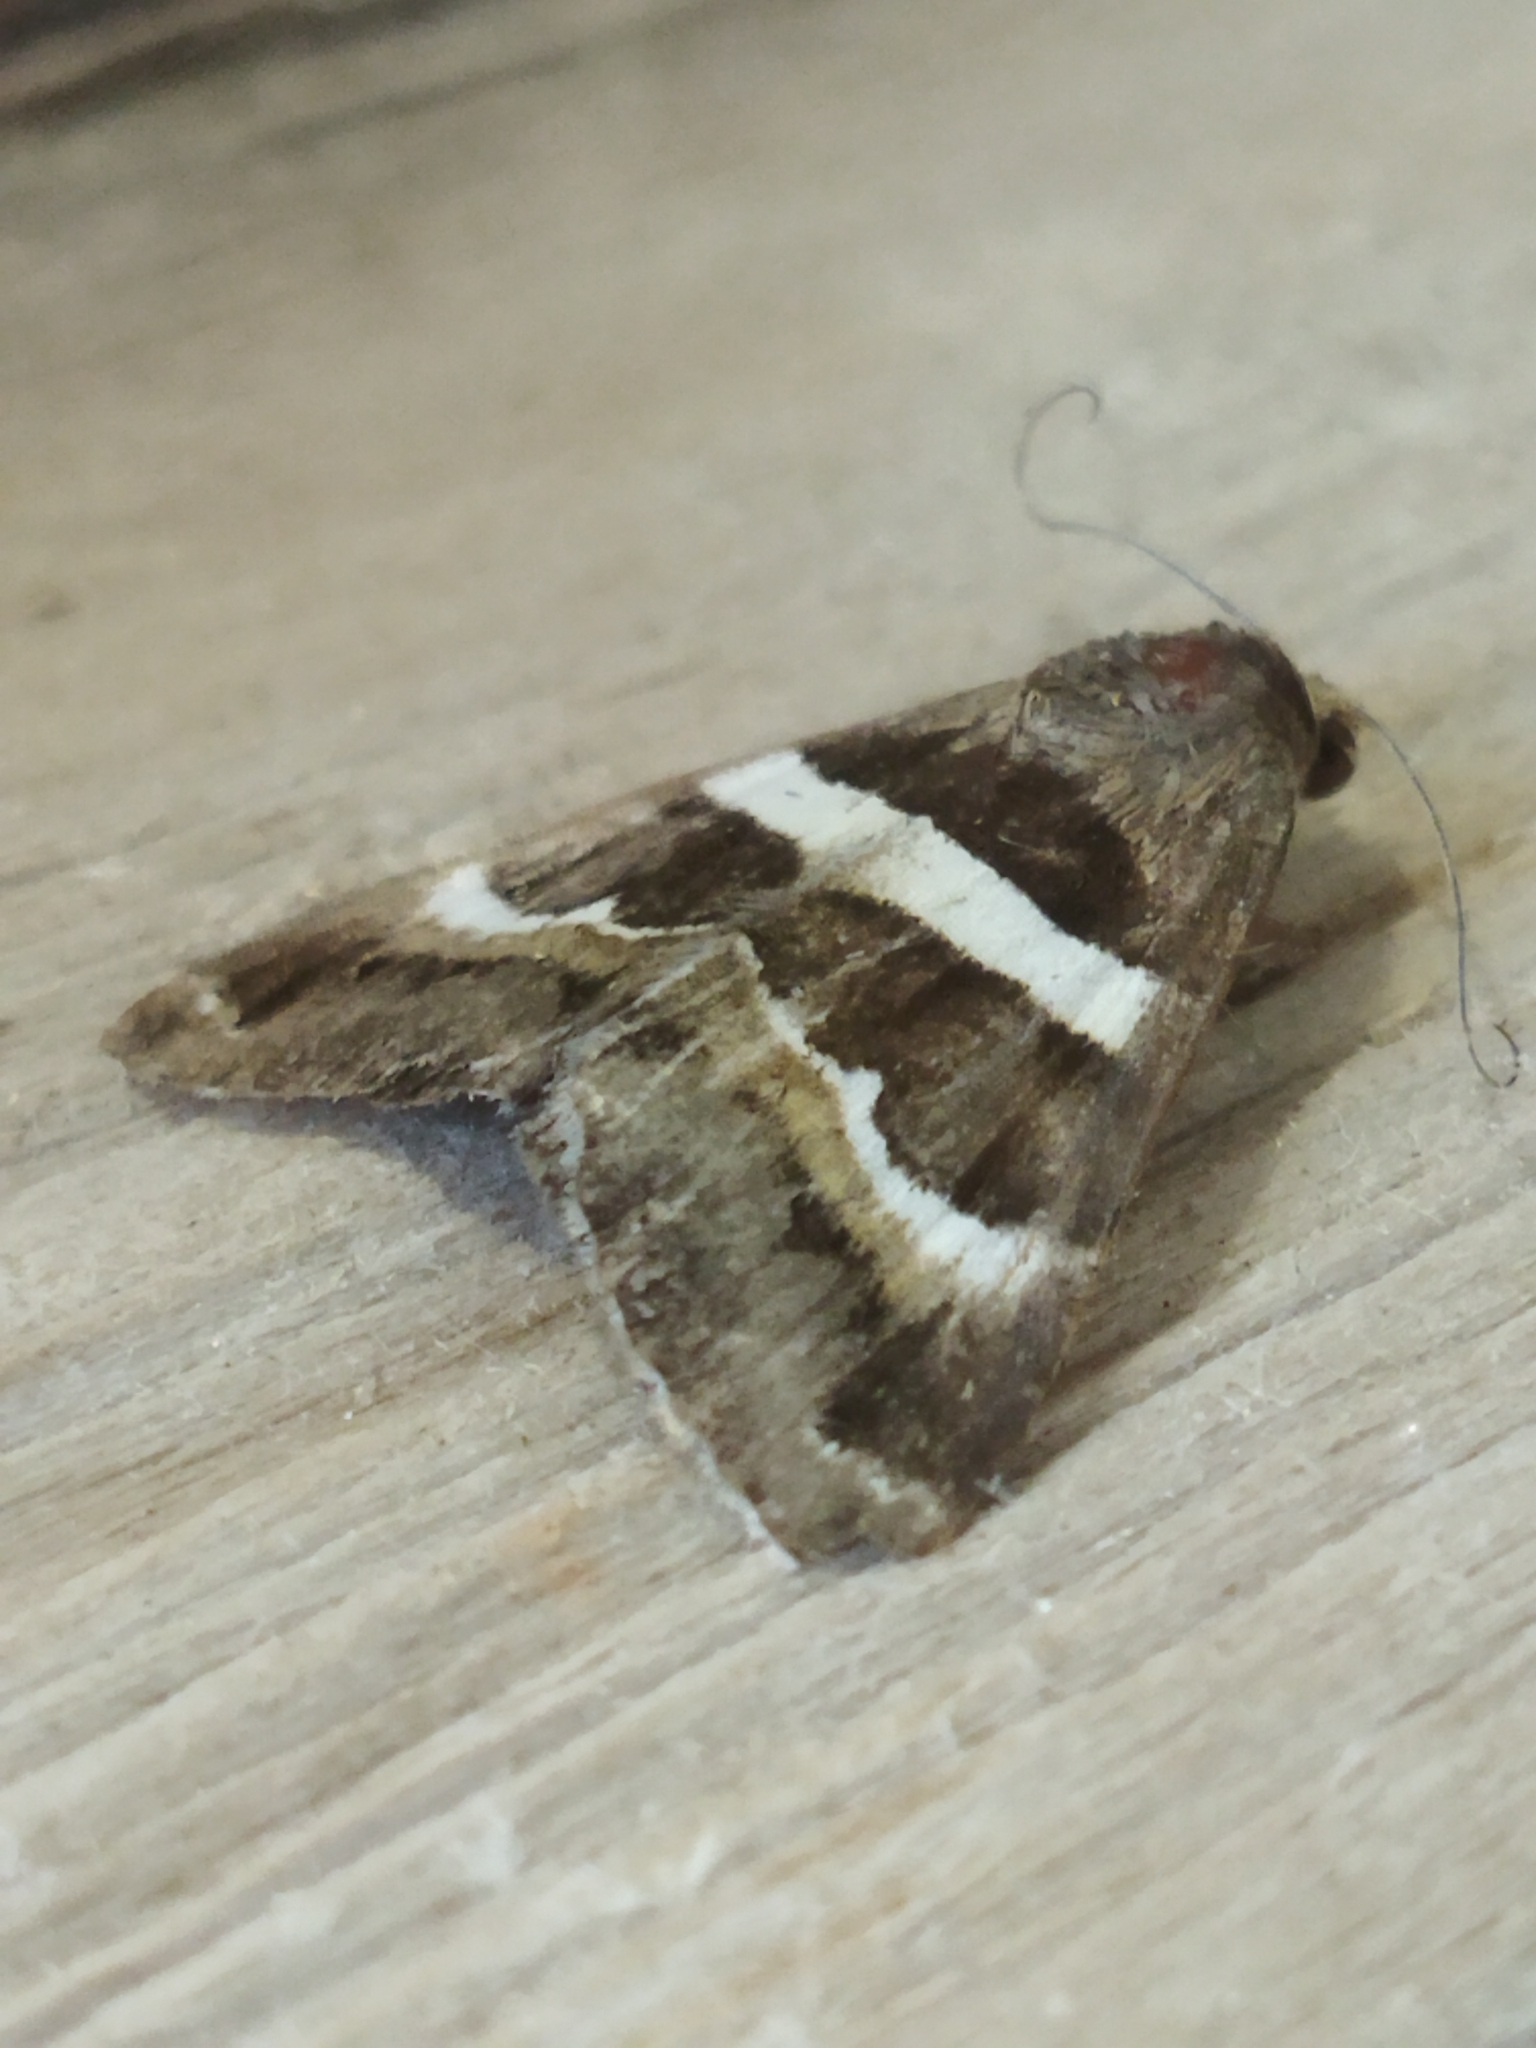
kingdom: Animalia
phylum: Arthropoda
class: Insecta
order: Lepidoptera
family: Erebidae
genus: Grammodes
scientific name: Grammodes stolida
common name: Geometrician
